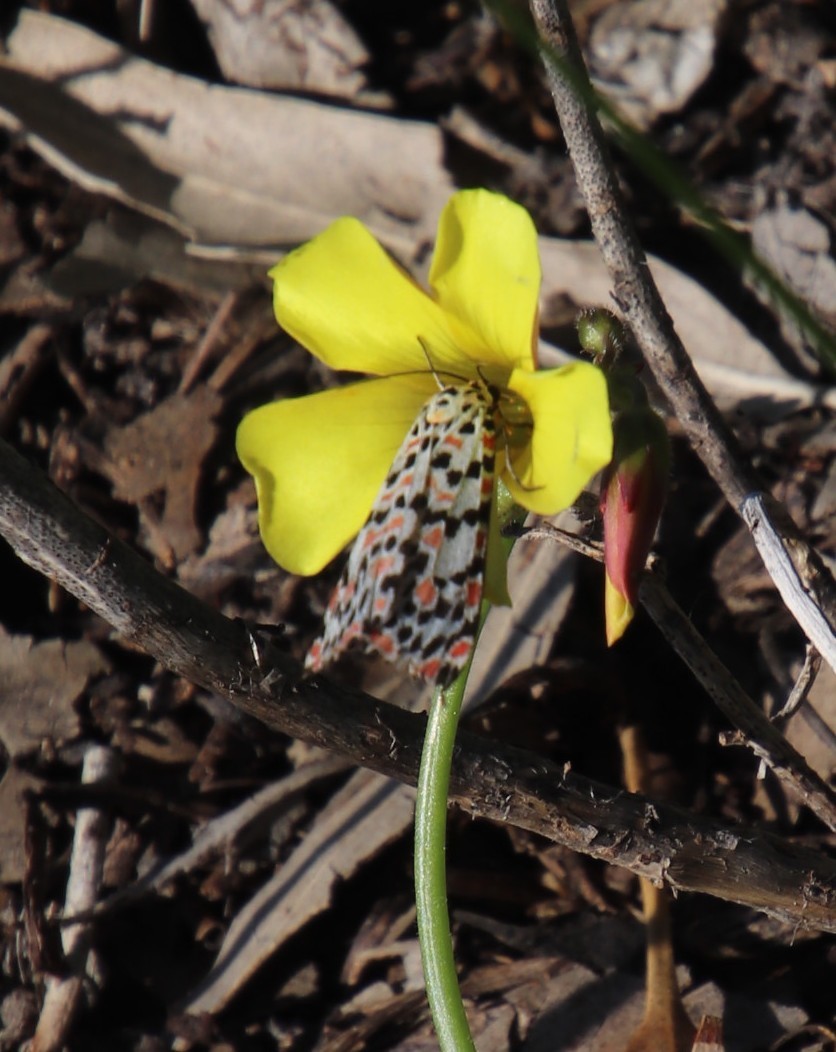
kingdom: Animalia
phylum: Arthropoda
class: Insecta
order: Lepidoptera
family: Erebidae
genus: Utetheisa
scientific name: Utetheisa pulchella
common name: Crimson speckled
